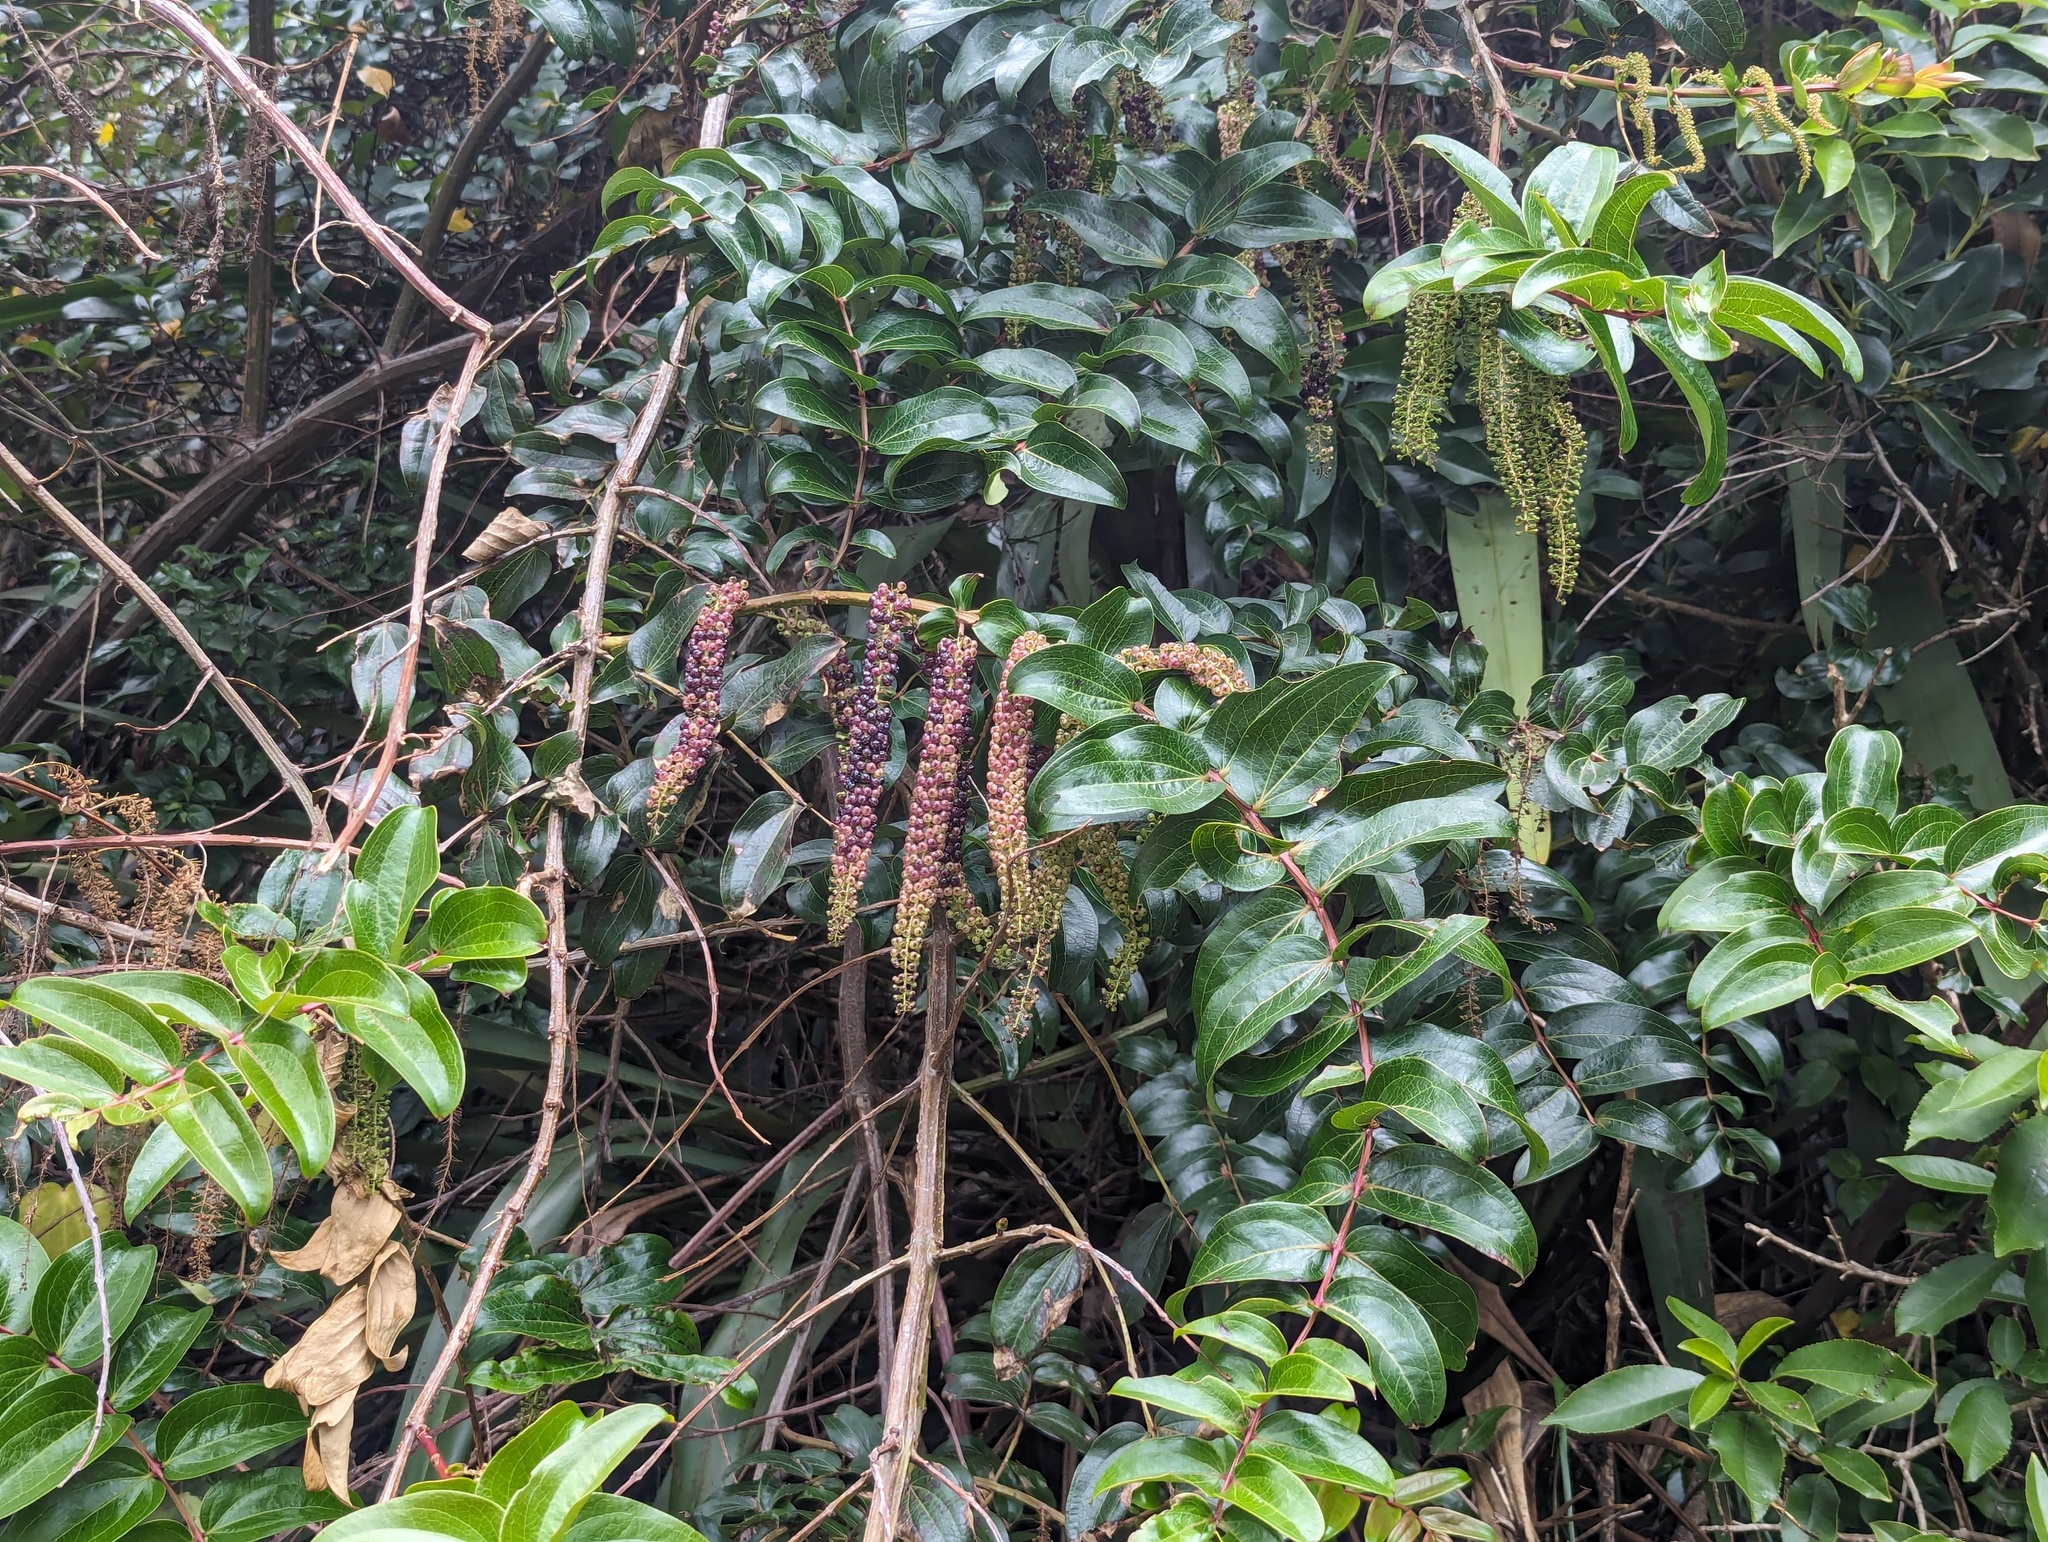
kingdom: Plantae
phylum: Tracheophyta
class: Magnoliopsida
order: Cucurbitales
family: Coriariaceae
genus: Coriaria
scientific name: Coriaria arborea
